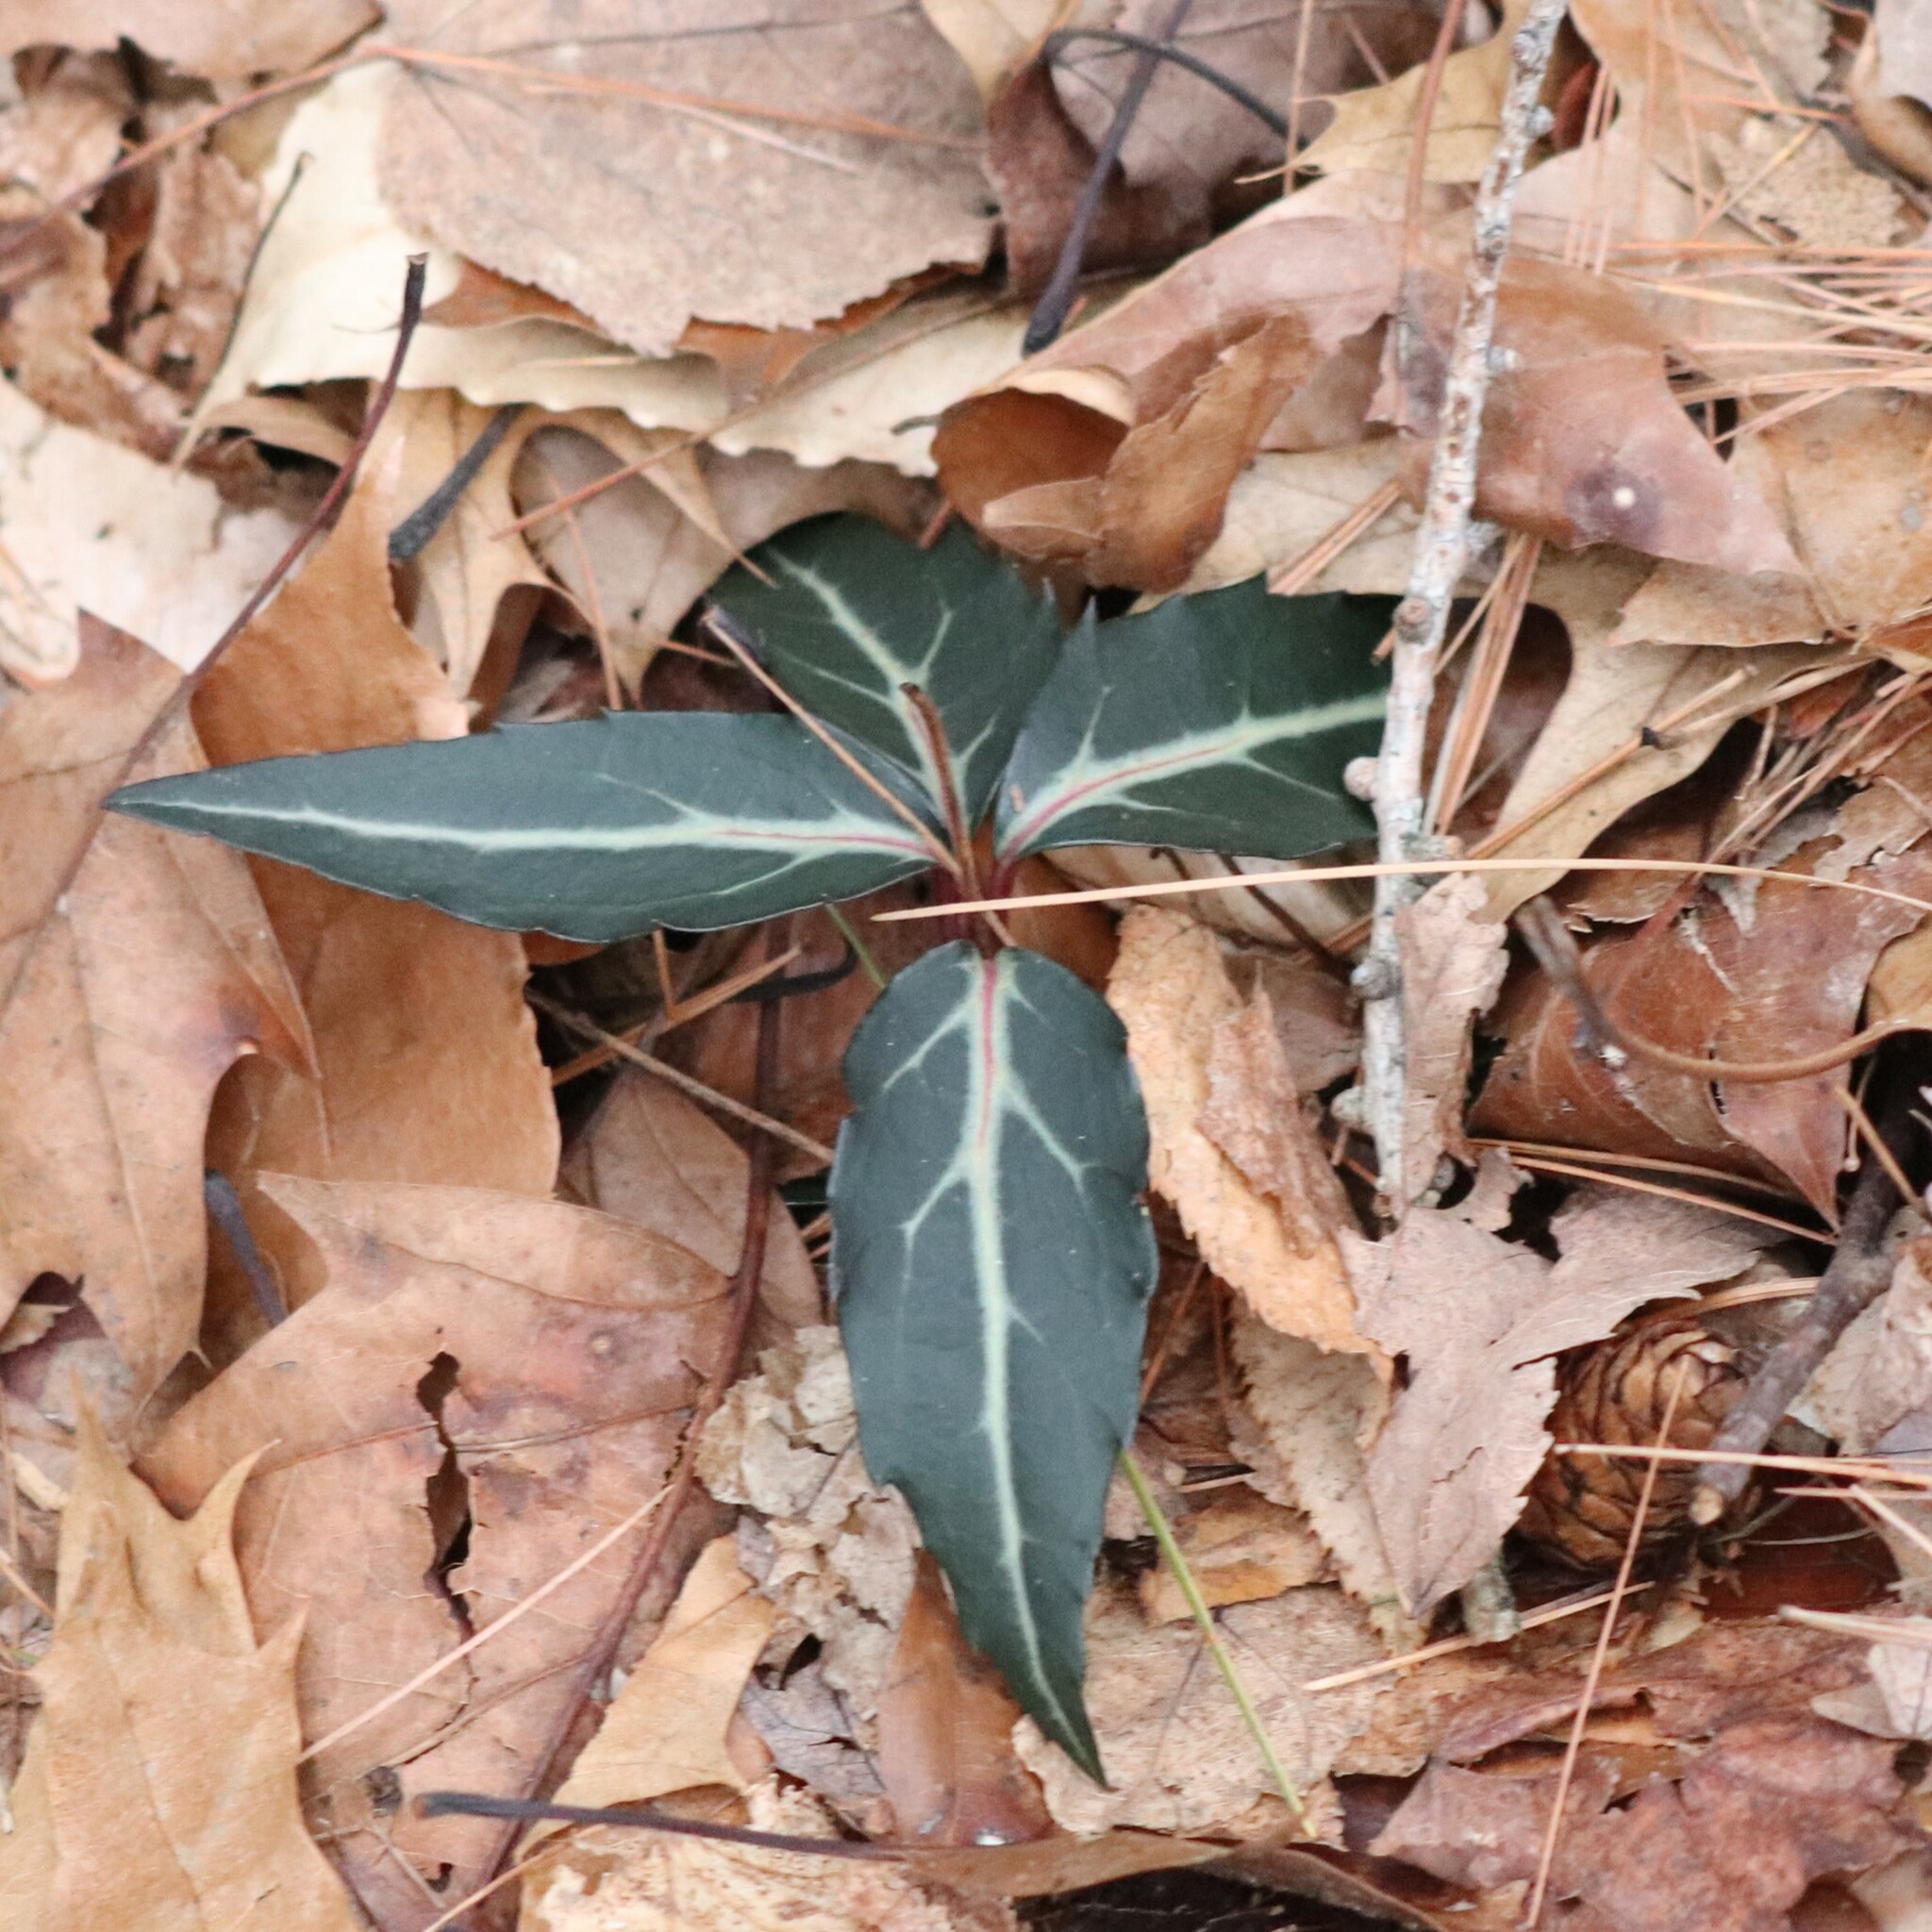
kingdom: Plantae
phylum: Tracheophyta
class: Magnoliopsida
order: Ericales
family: Ericaceae
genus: Chimaphila
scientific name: Chimaphila maculata
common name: Spotted pipsissewa
